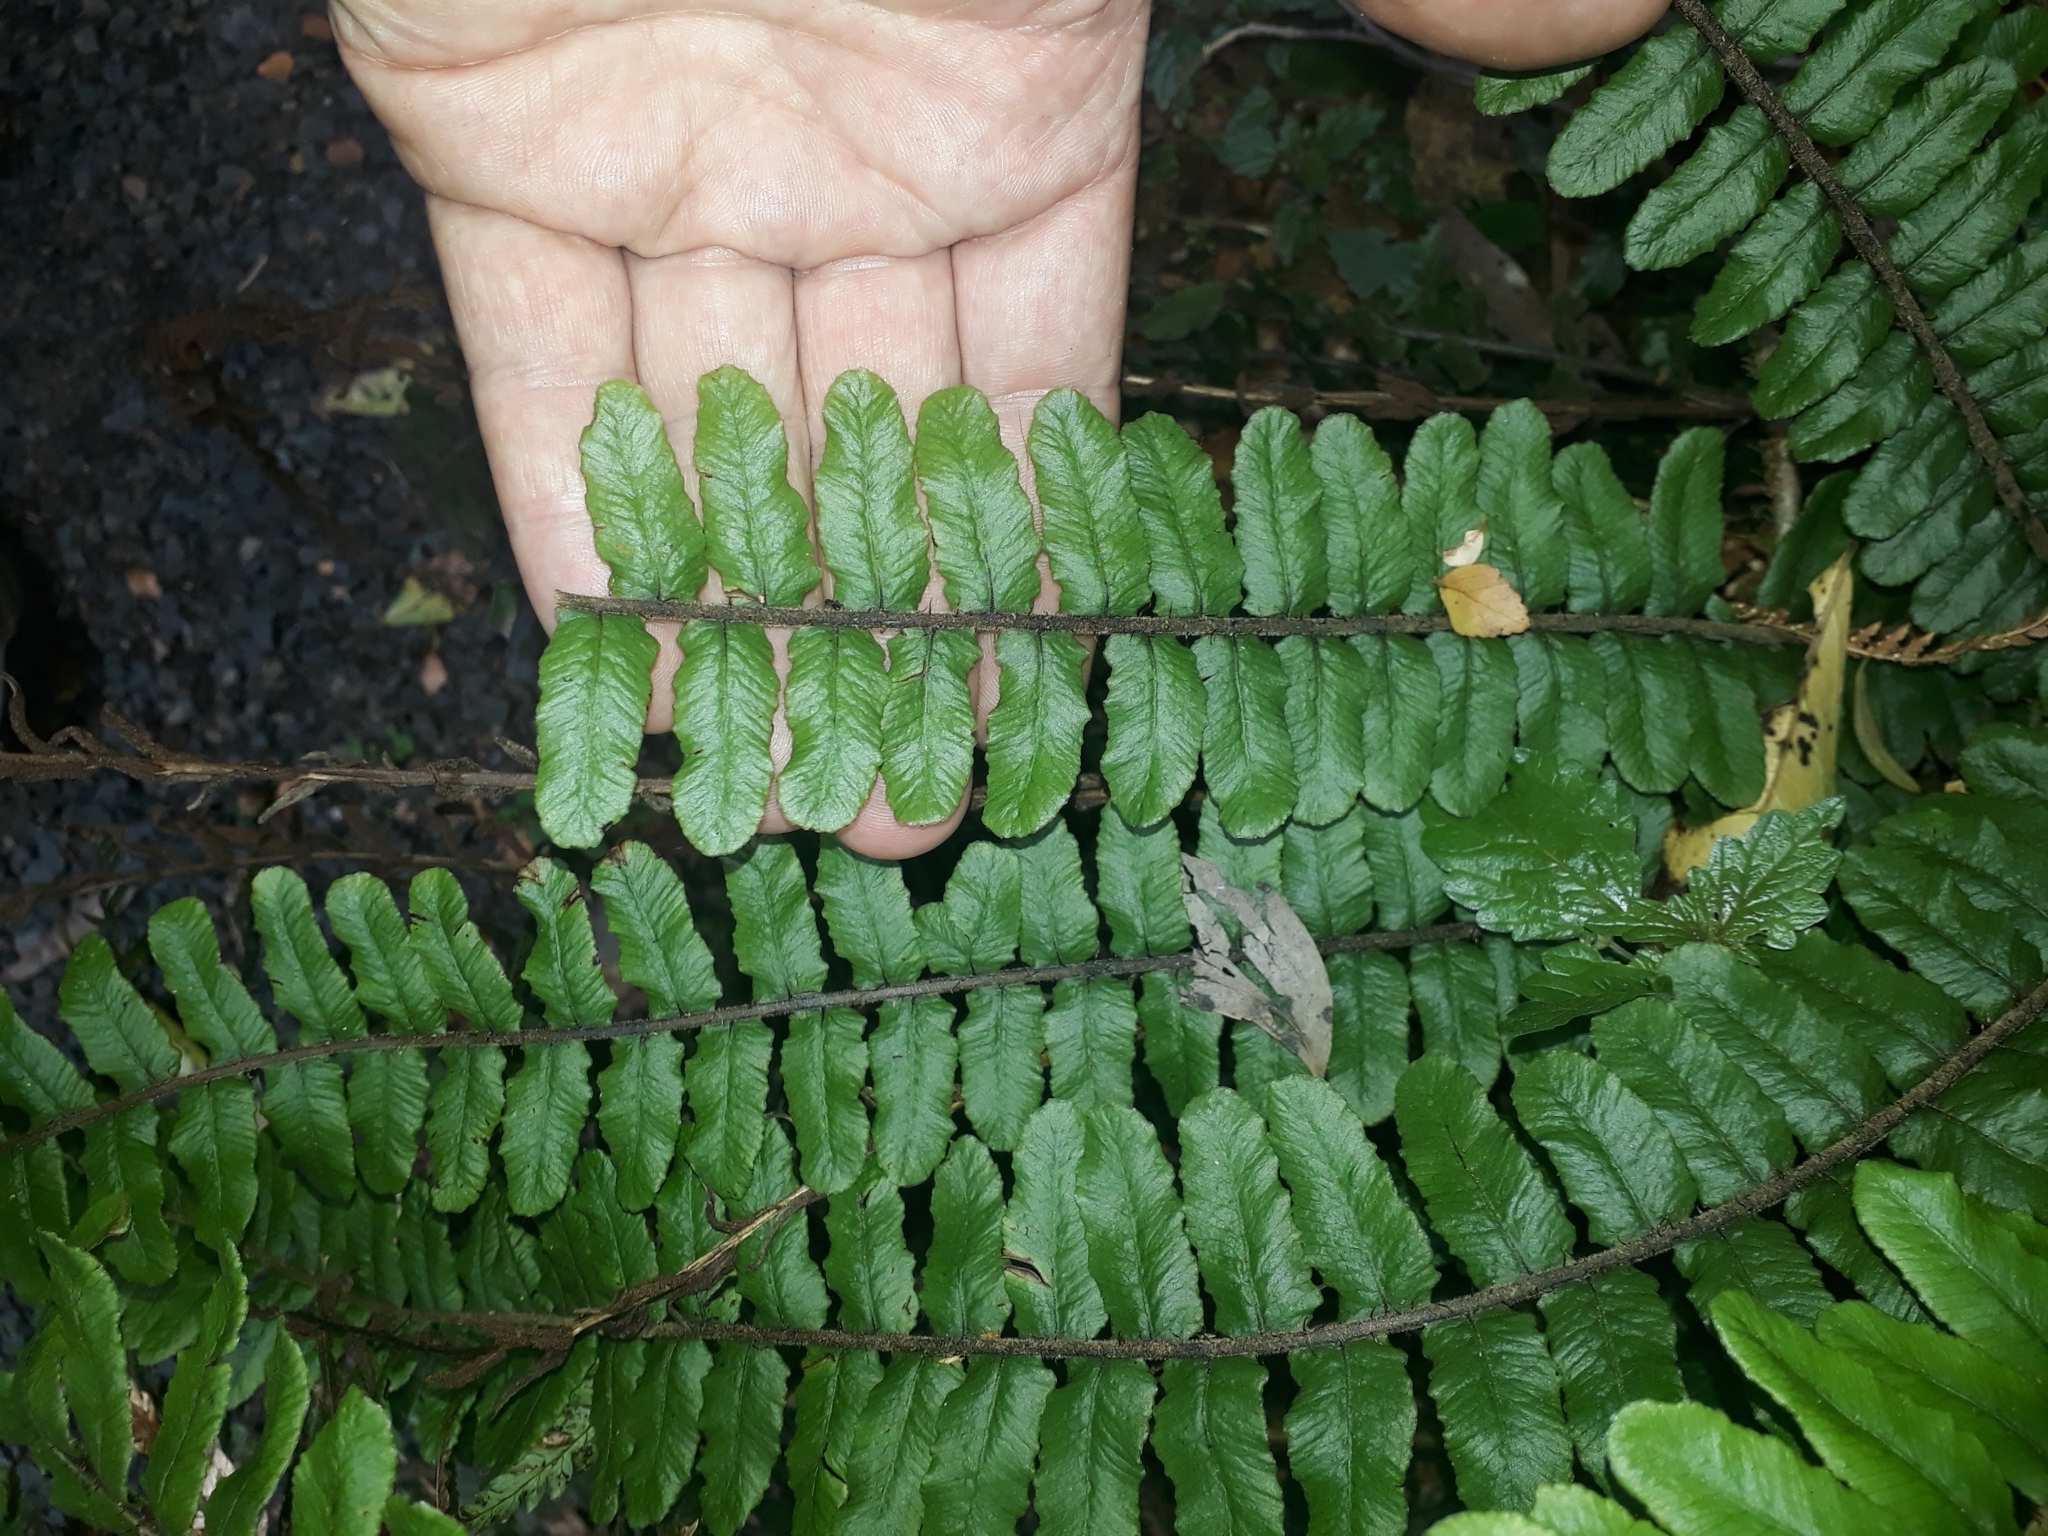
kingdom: Plantae
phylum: Tracheophyta
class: Polypodiopsida
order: Polypodiales
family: Blechnaceae
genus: Cranfillia
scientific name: Cranfillia fluviatilis
